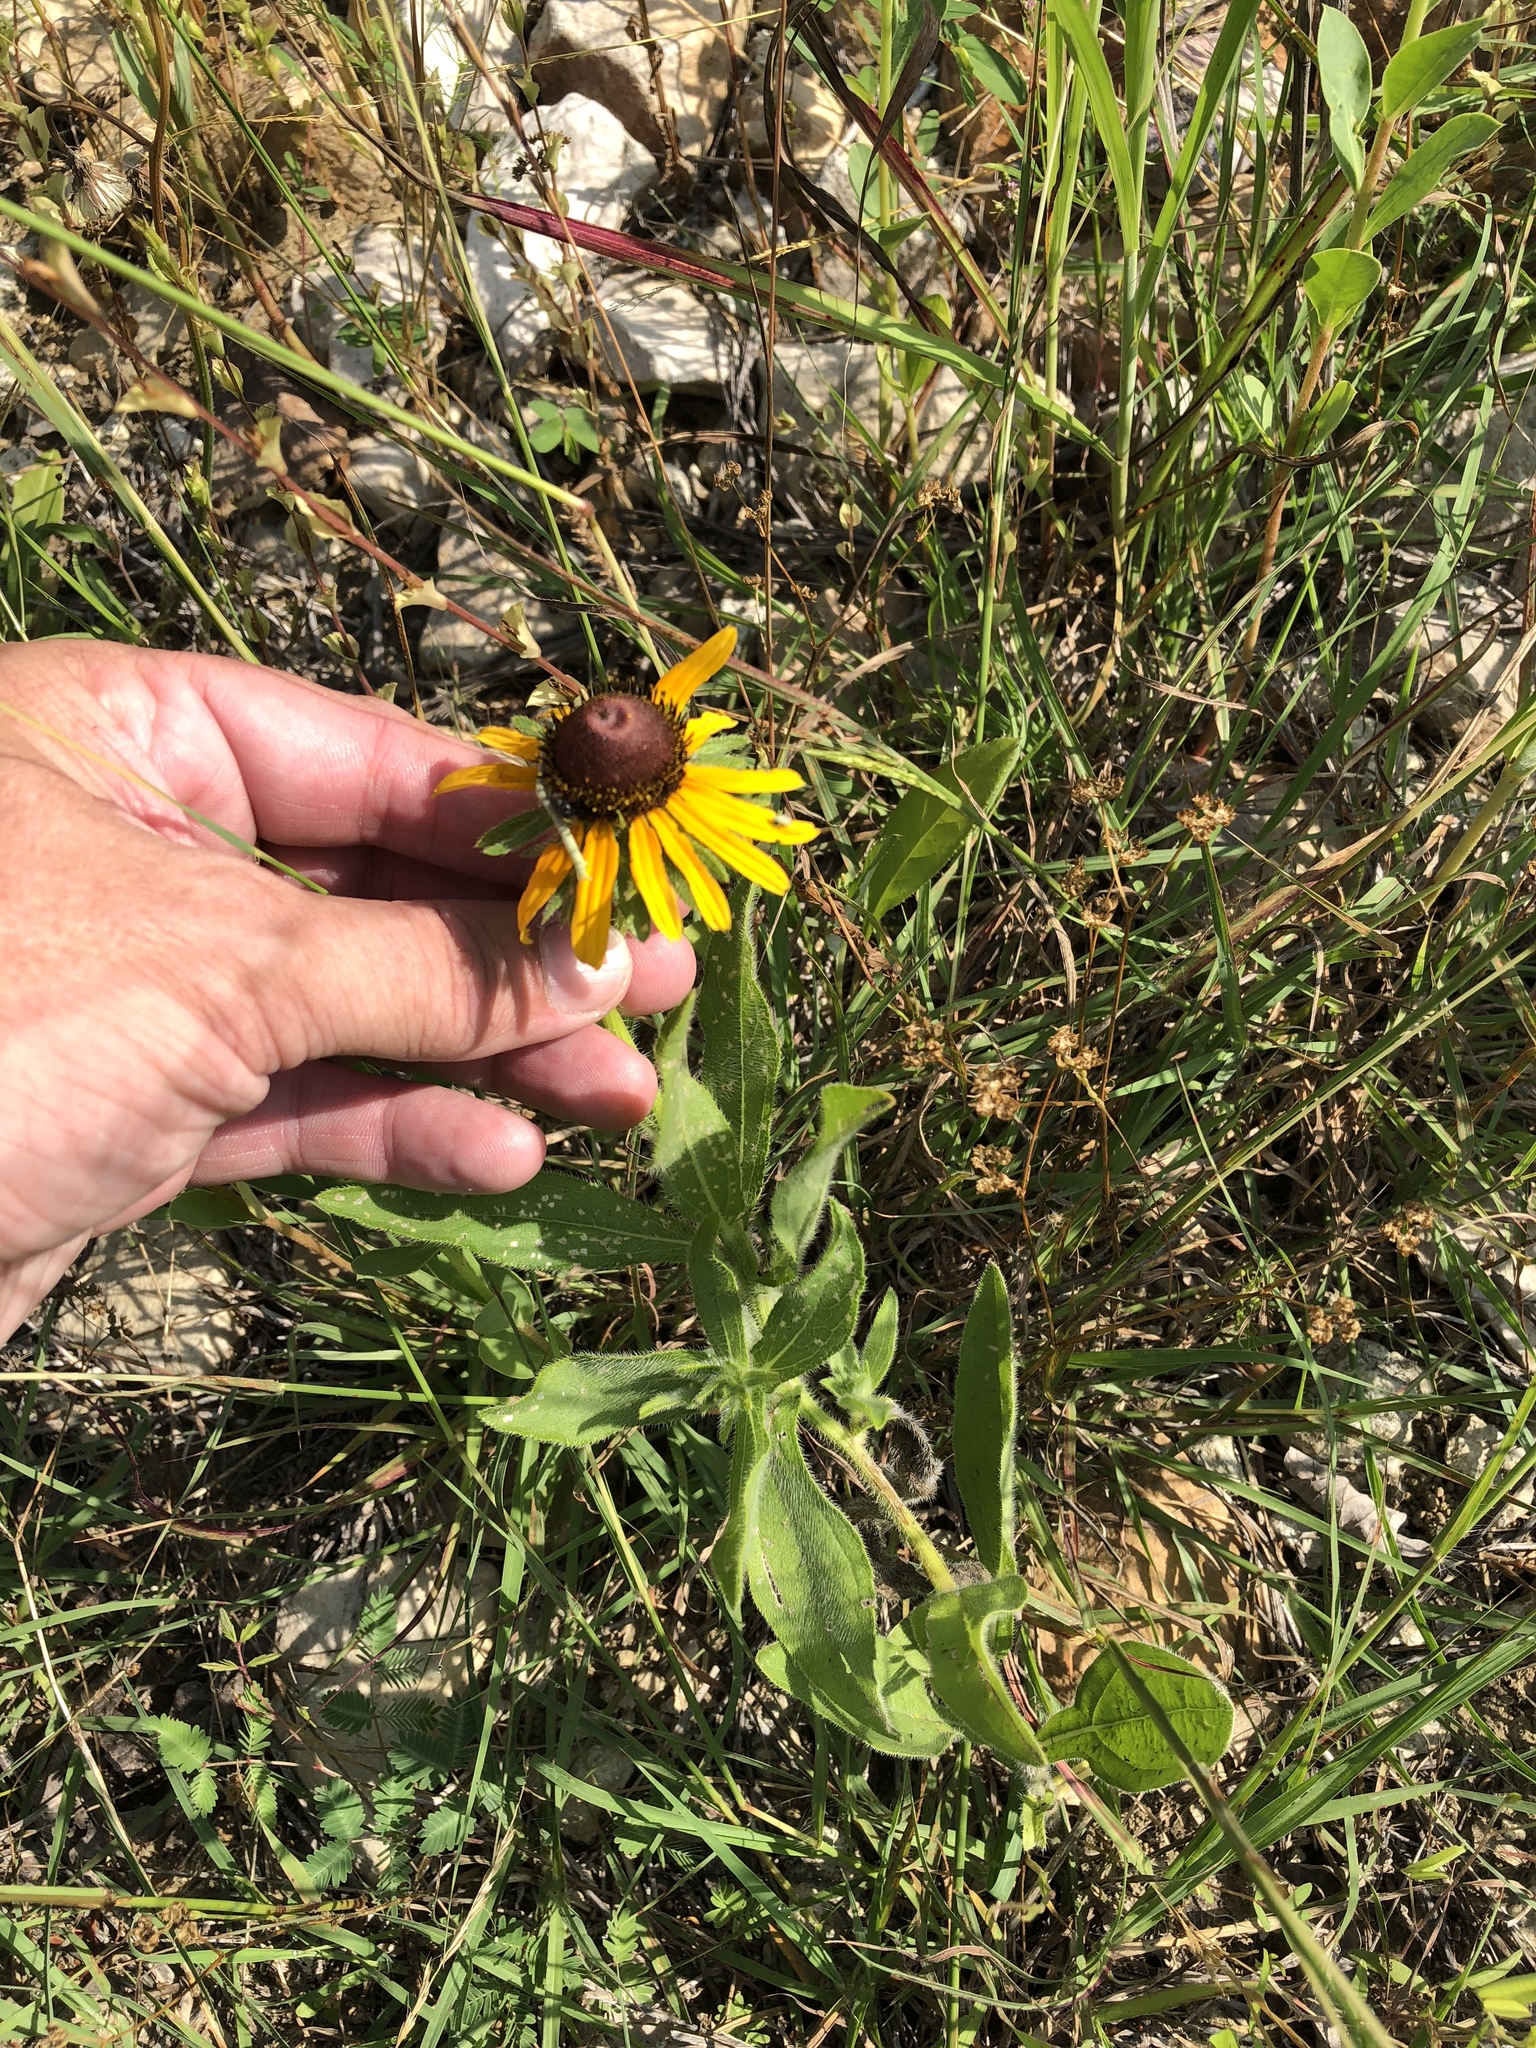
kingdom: Plantae
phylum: Tracheophyta
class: Magnoliopsida
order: Asterales
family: Asteraceae
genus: Rudbeckia
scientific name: Rudbeckia hirta
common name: Black-eyed-susan
